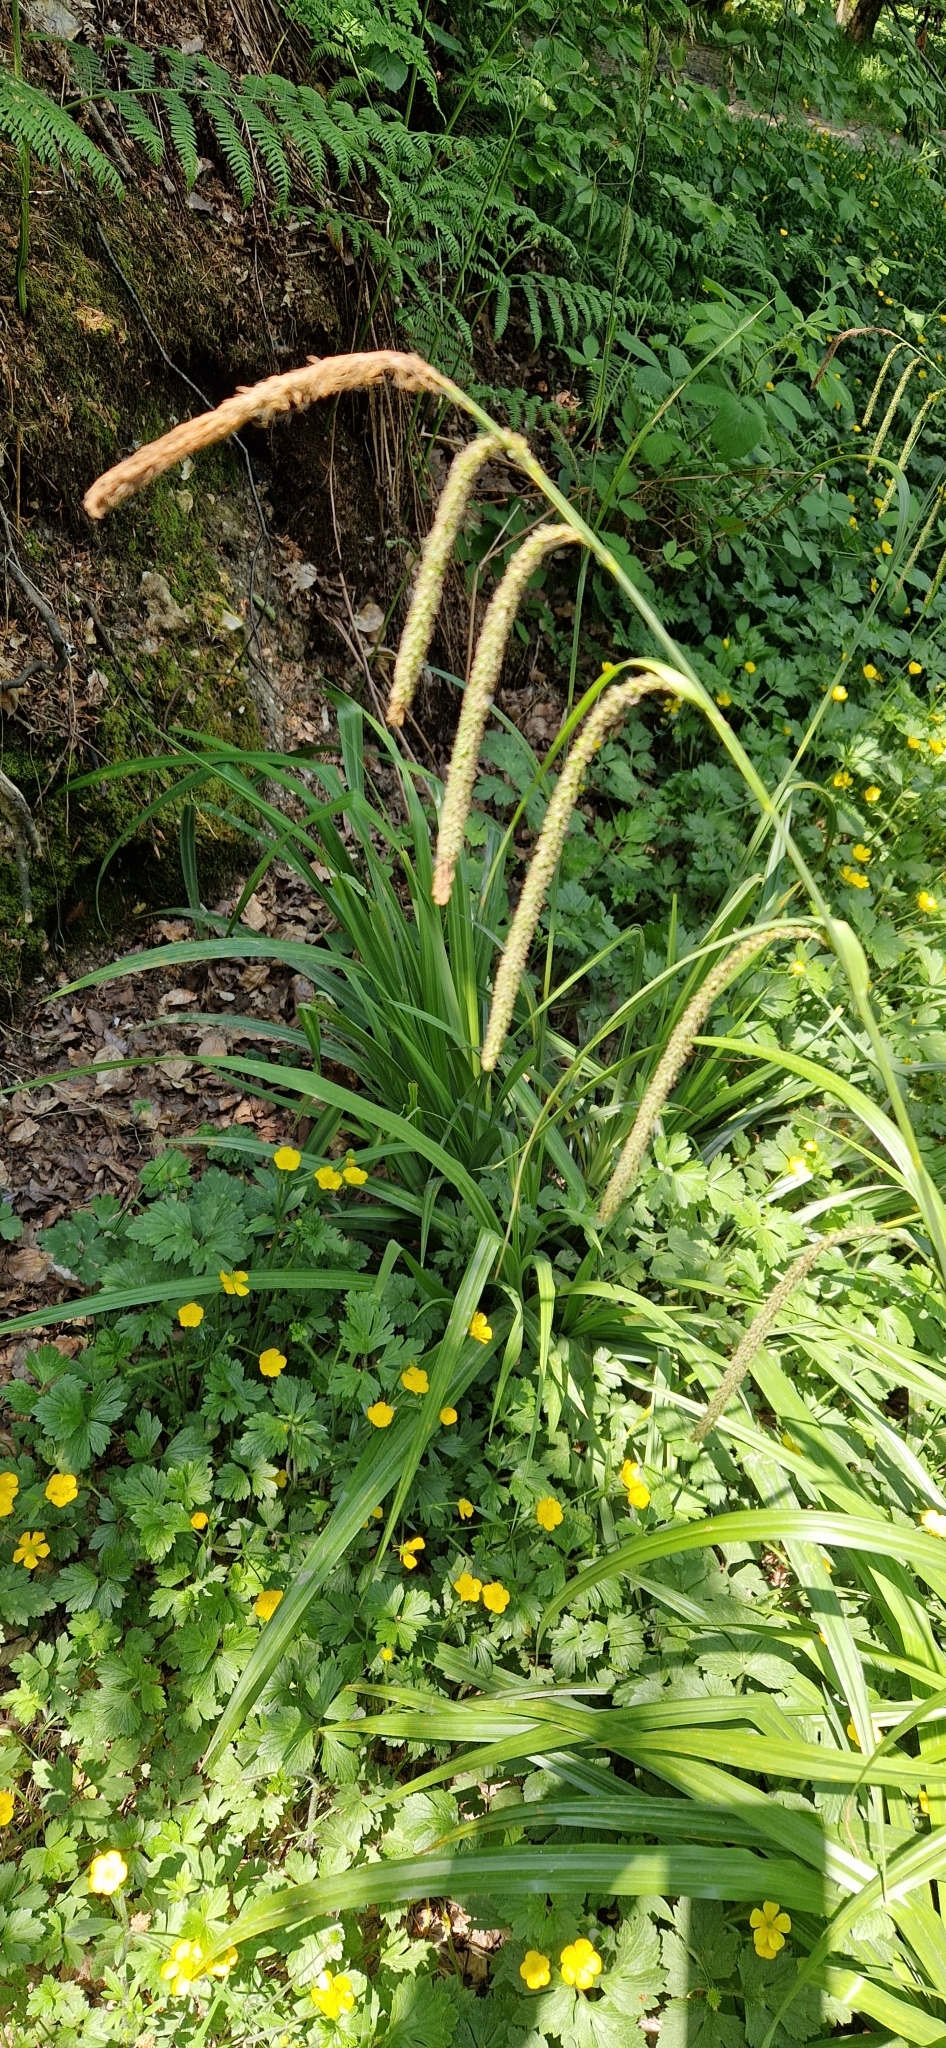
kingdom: Plantae
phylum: Tracheophyta
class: Liliopsida
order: Poales
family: Cyperaceae
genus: Carex
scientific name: Carex pendula
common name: Pendulous sedge
